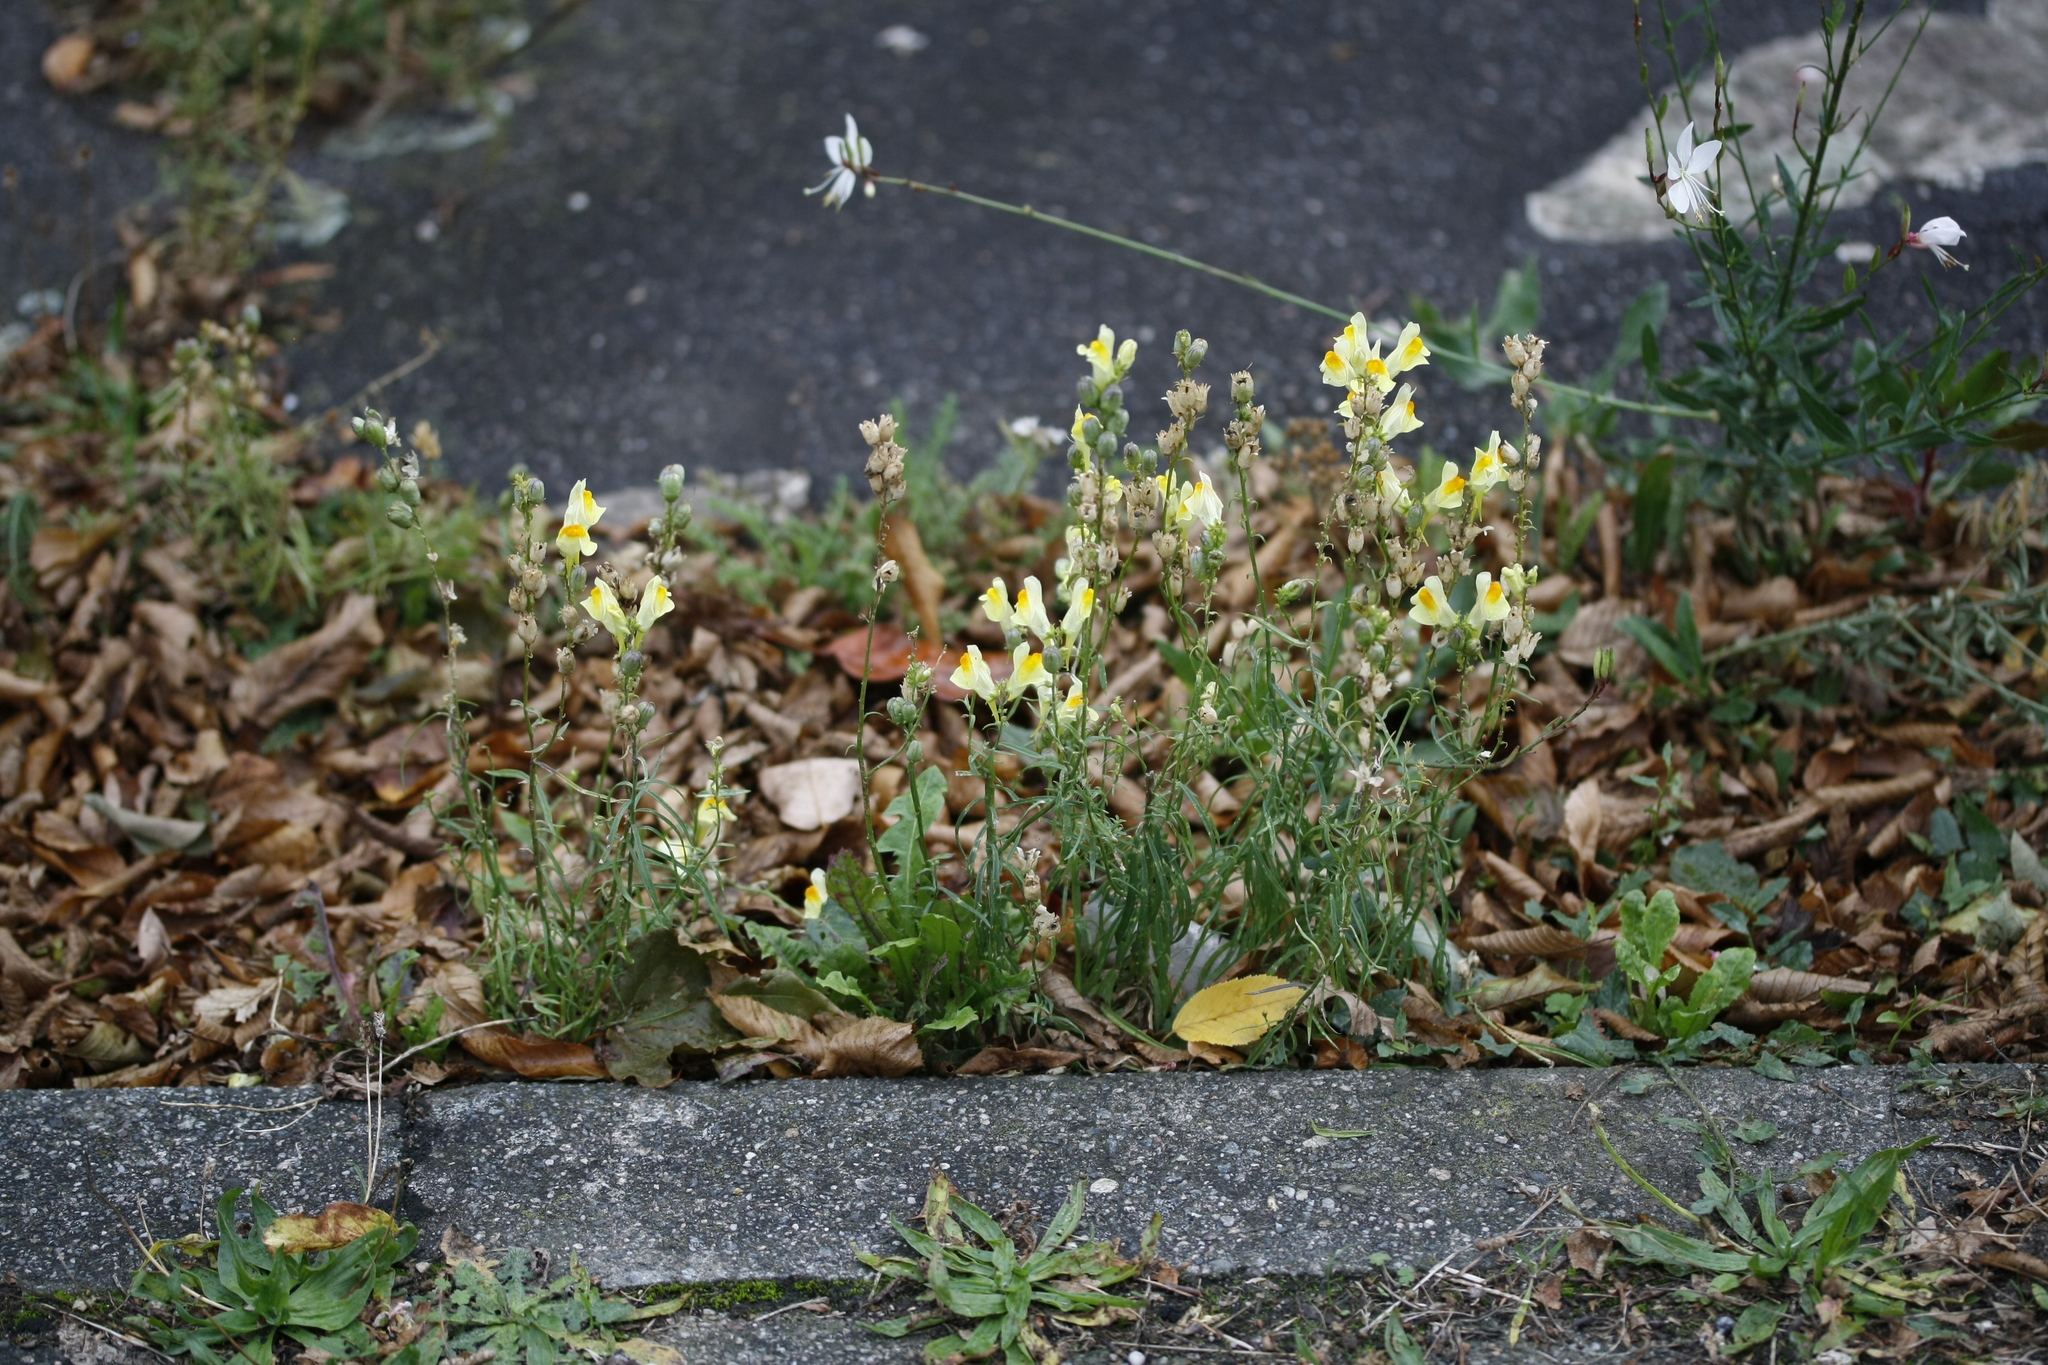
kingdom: Plantae
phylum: Tracheophyta
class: Magnoliopsida
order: Lamiales
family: Plantaginaceae
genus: Linaria
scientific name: Linaria vulgaris
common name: Butter and eggs
